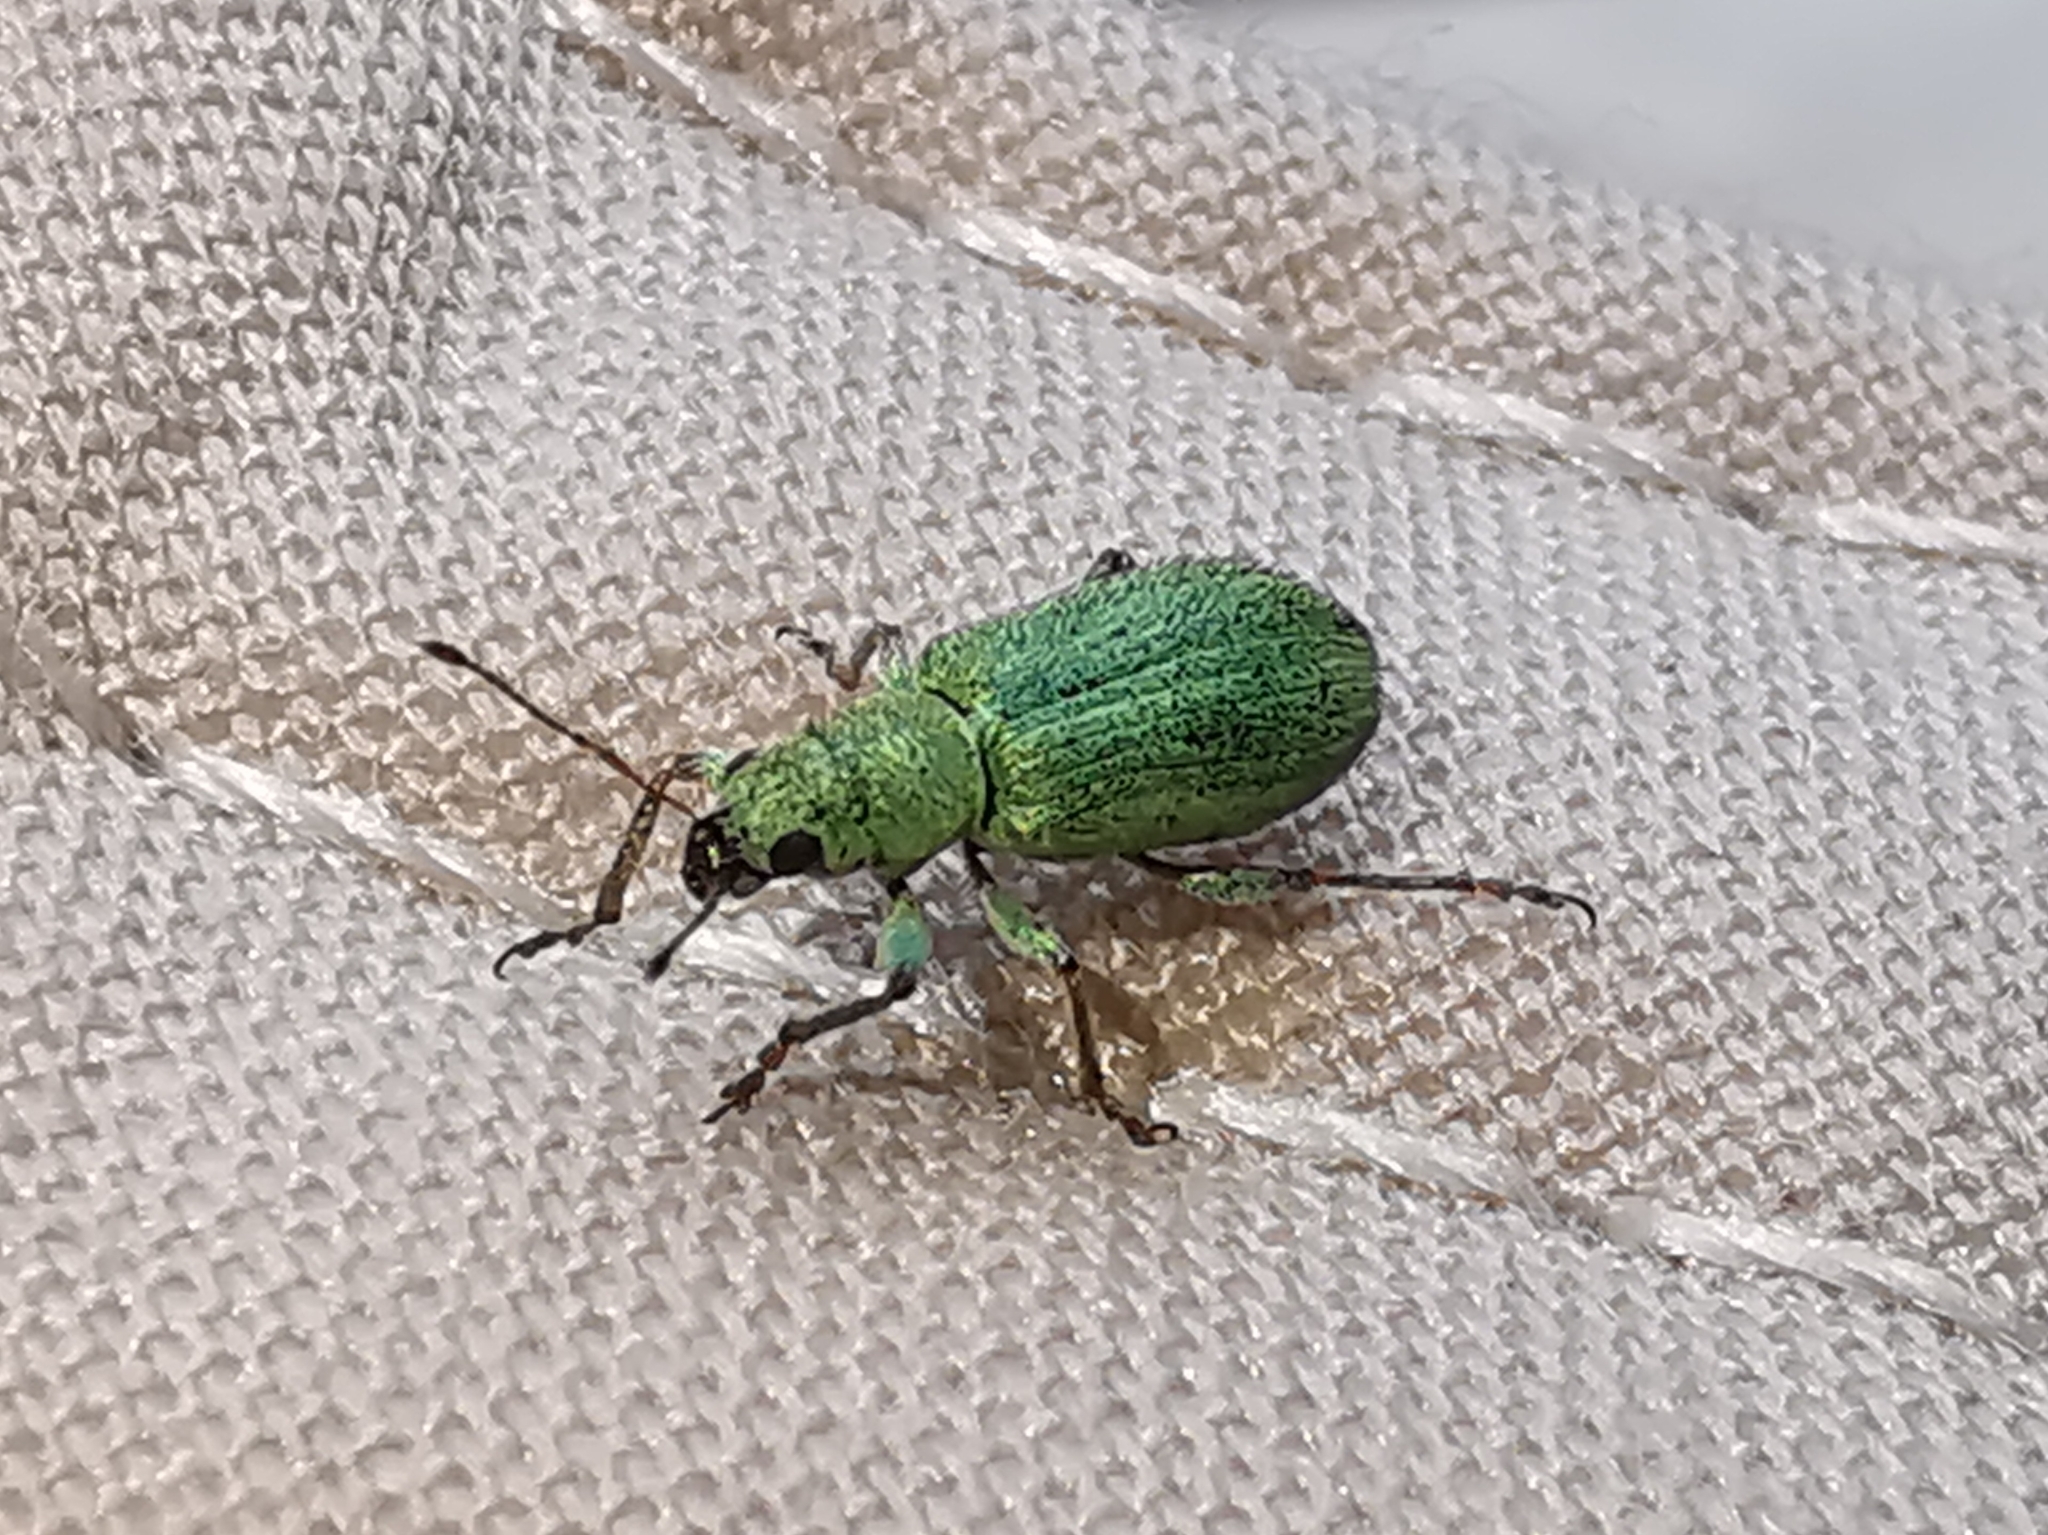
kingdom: Animalia
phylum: Arthropoda
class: Insecta
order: Coleoptera
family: Curculionidae
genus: Pachyrhinus
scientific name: Pachyrhinus lethierryi
